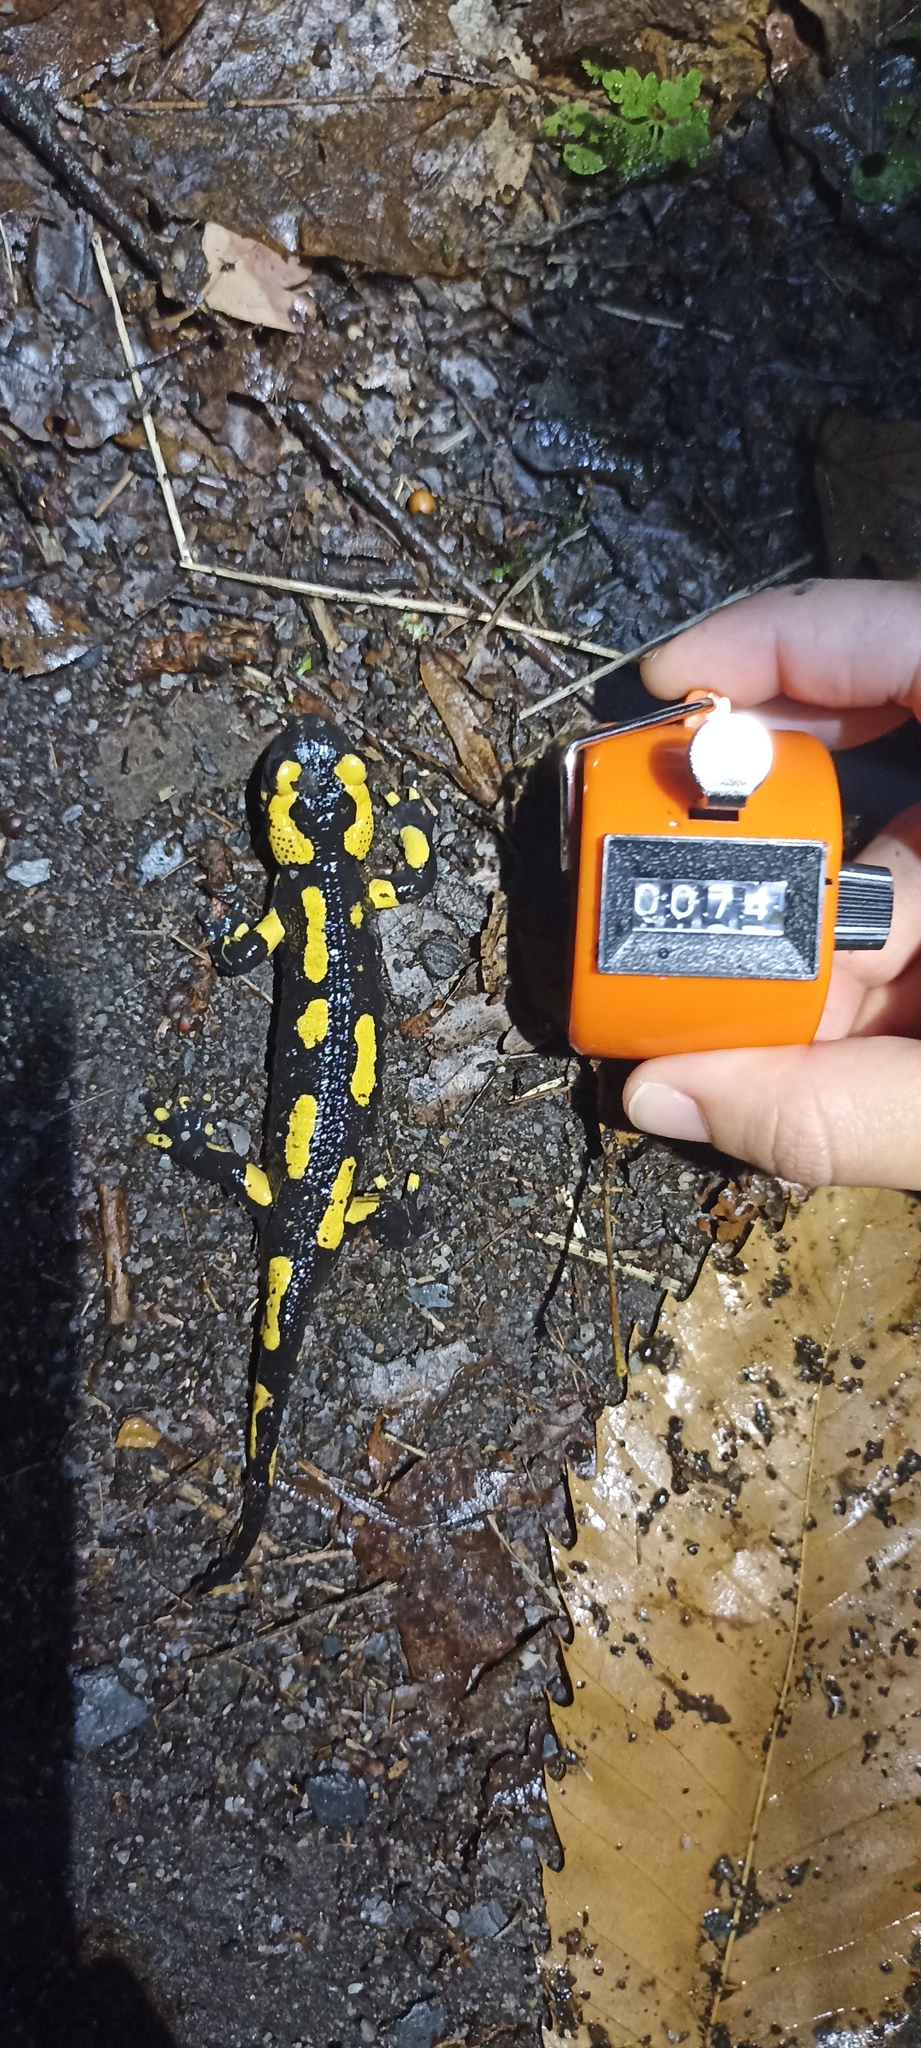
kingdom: Animalia
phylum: Chordata
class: Amphibia
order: Caudata
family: Salamandridae
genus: Salamandra
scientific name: Salamandra salamandra
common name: Fire salamander
